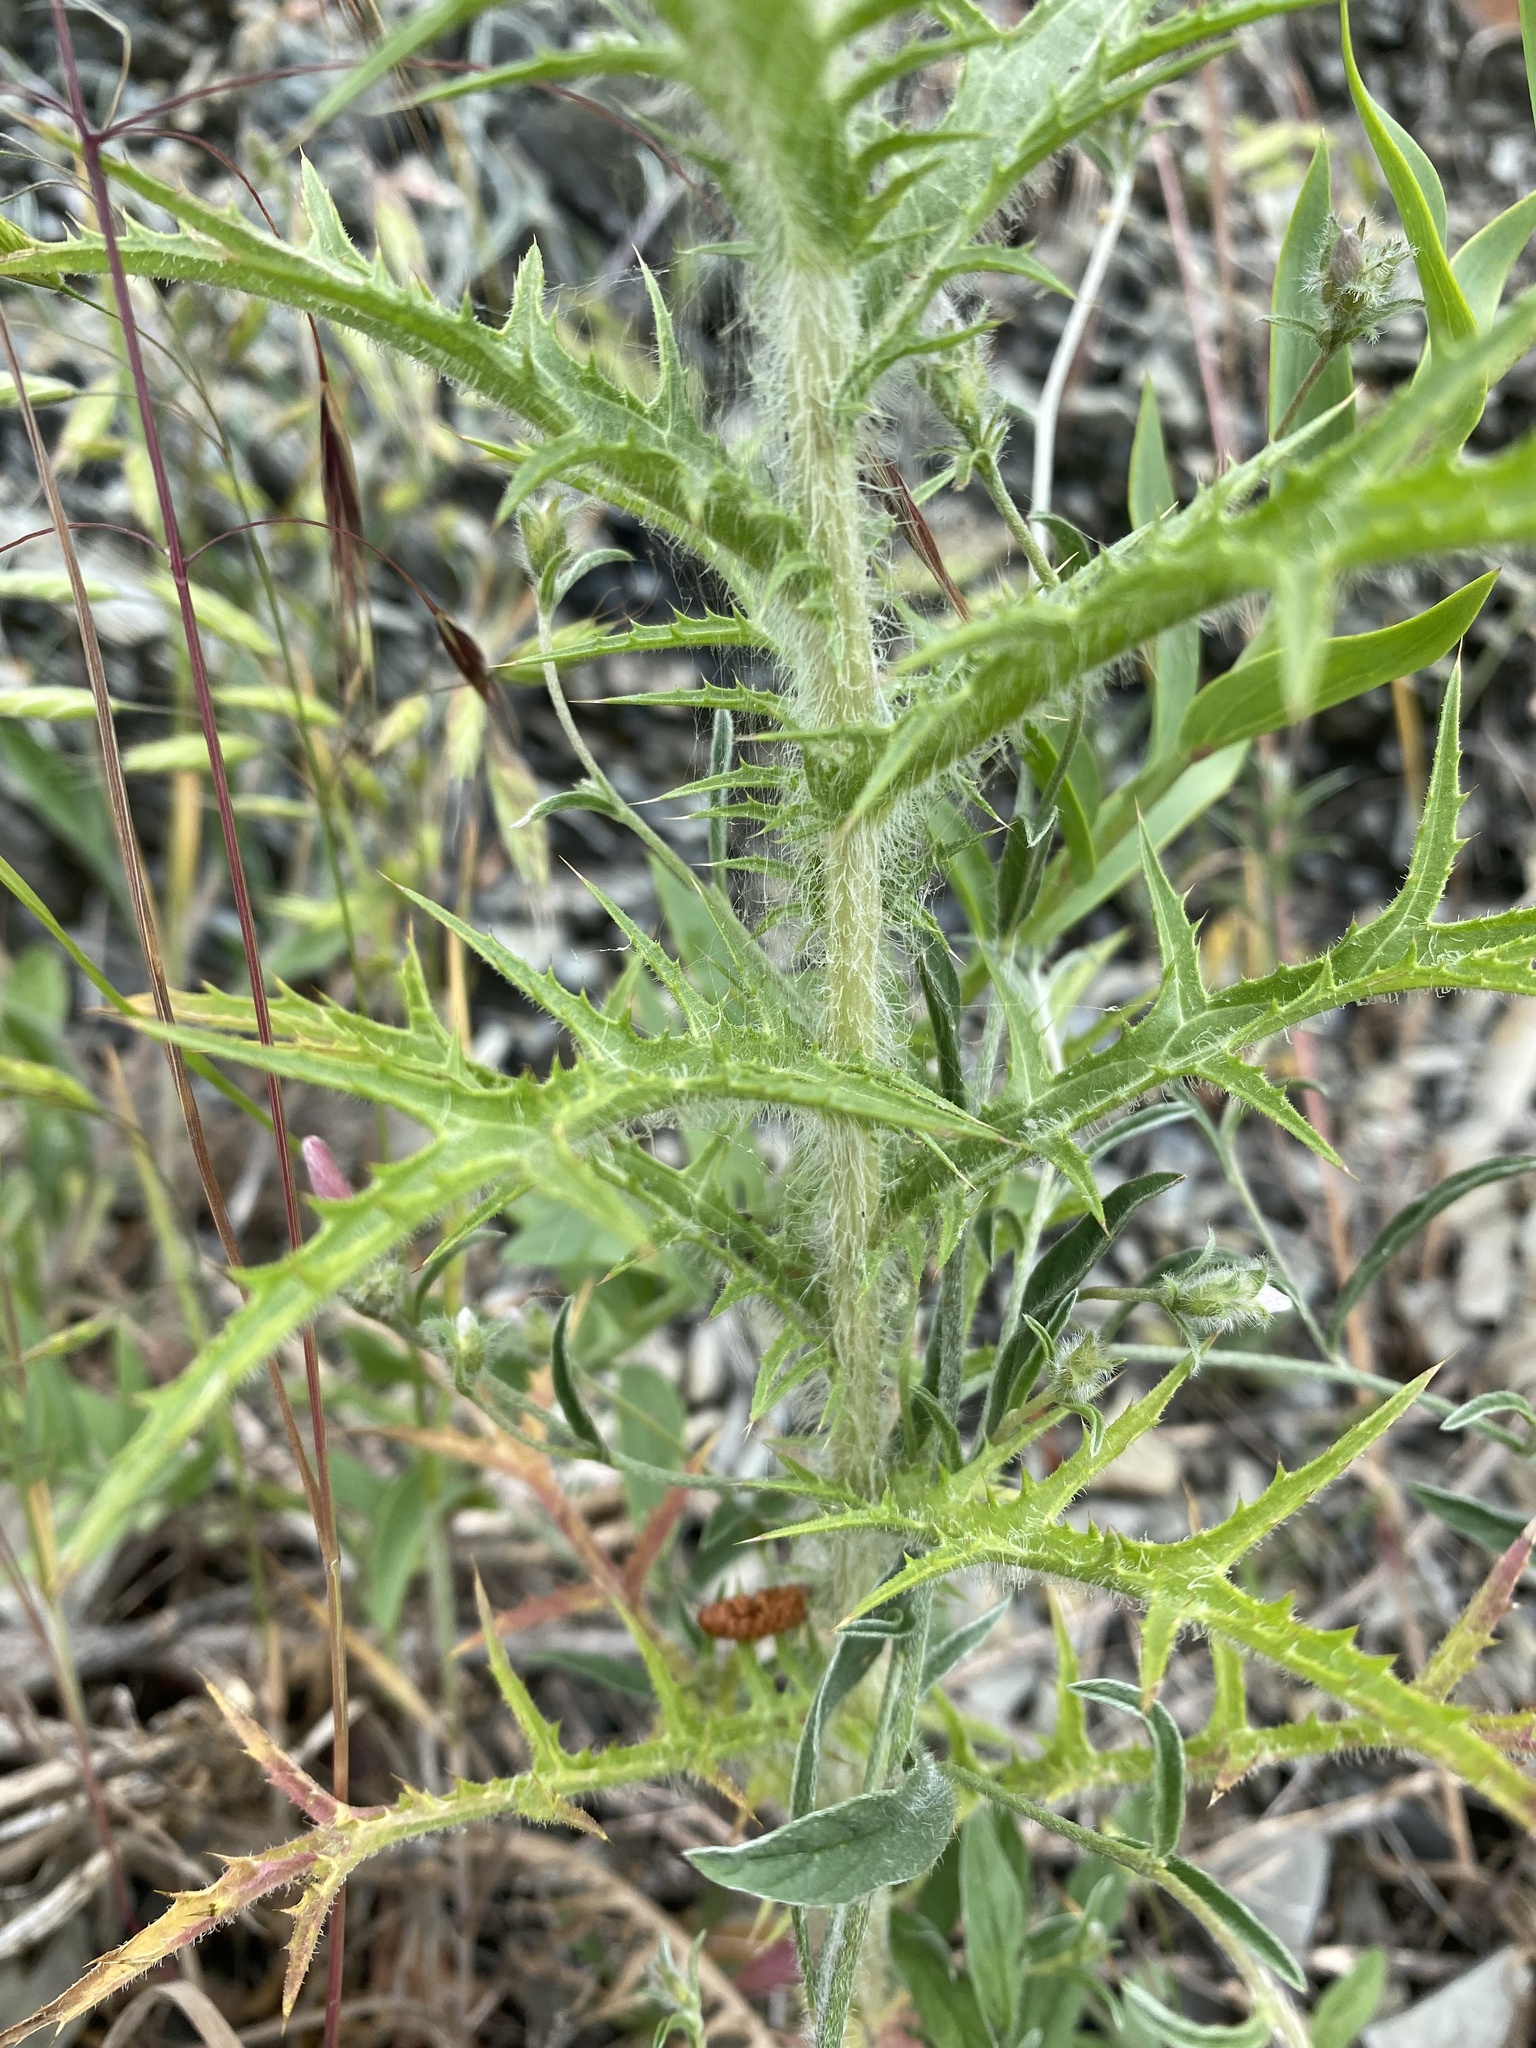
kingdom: Plantae
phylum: Tracheophyta
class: Magnoliopsida
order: Asterales
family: Asteraceae
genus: Carthamus
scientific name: Carthamus lanatus
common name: Downy safflower
